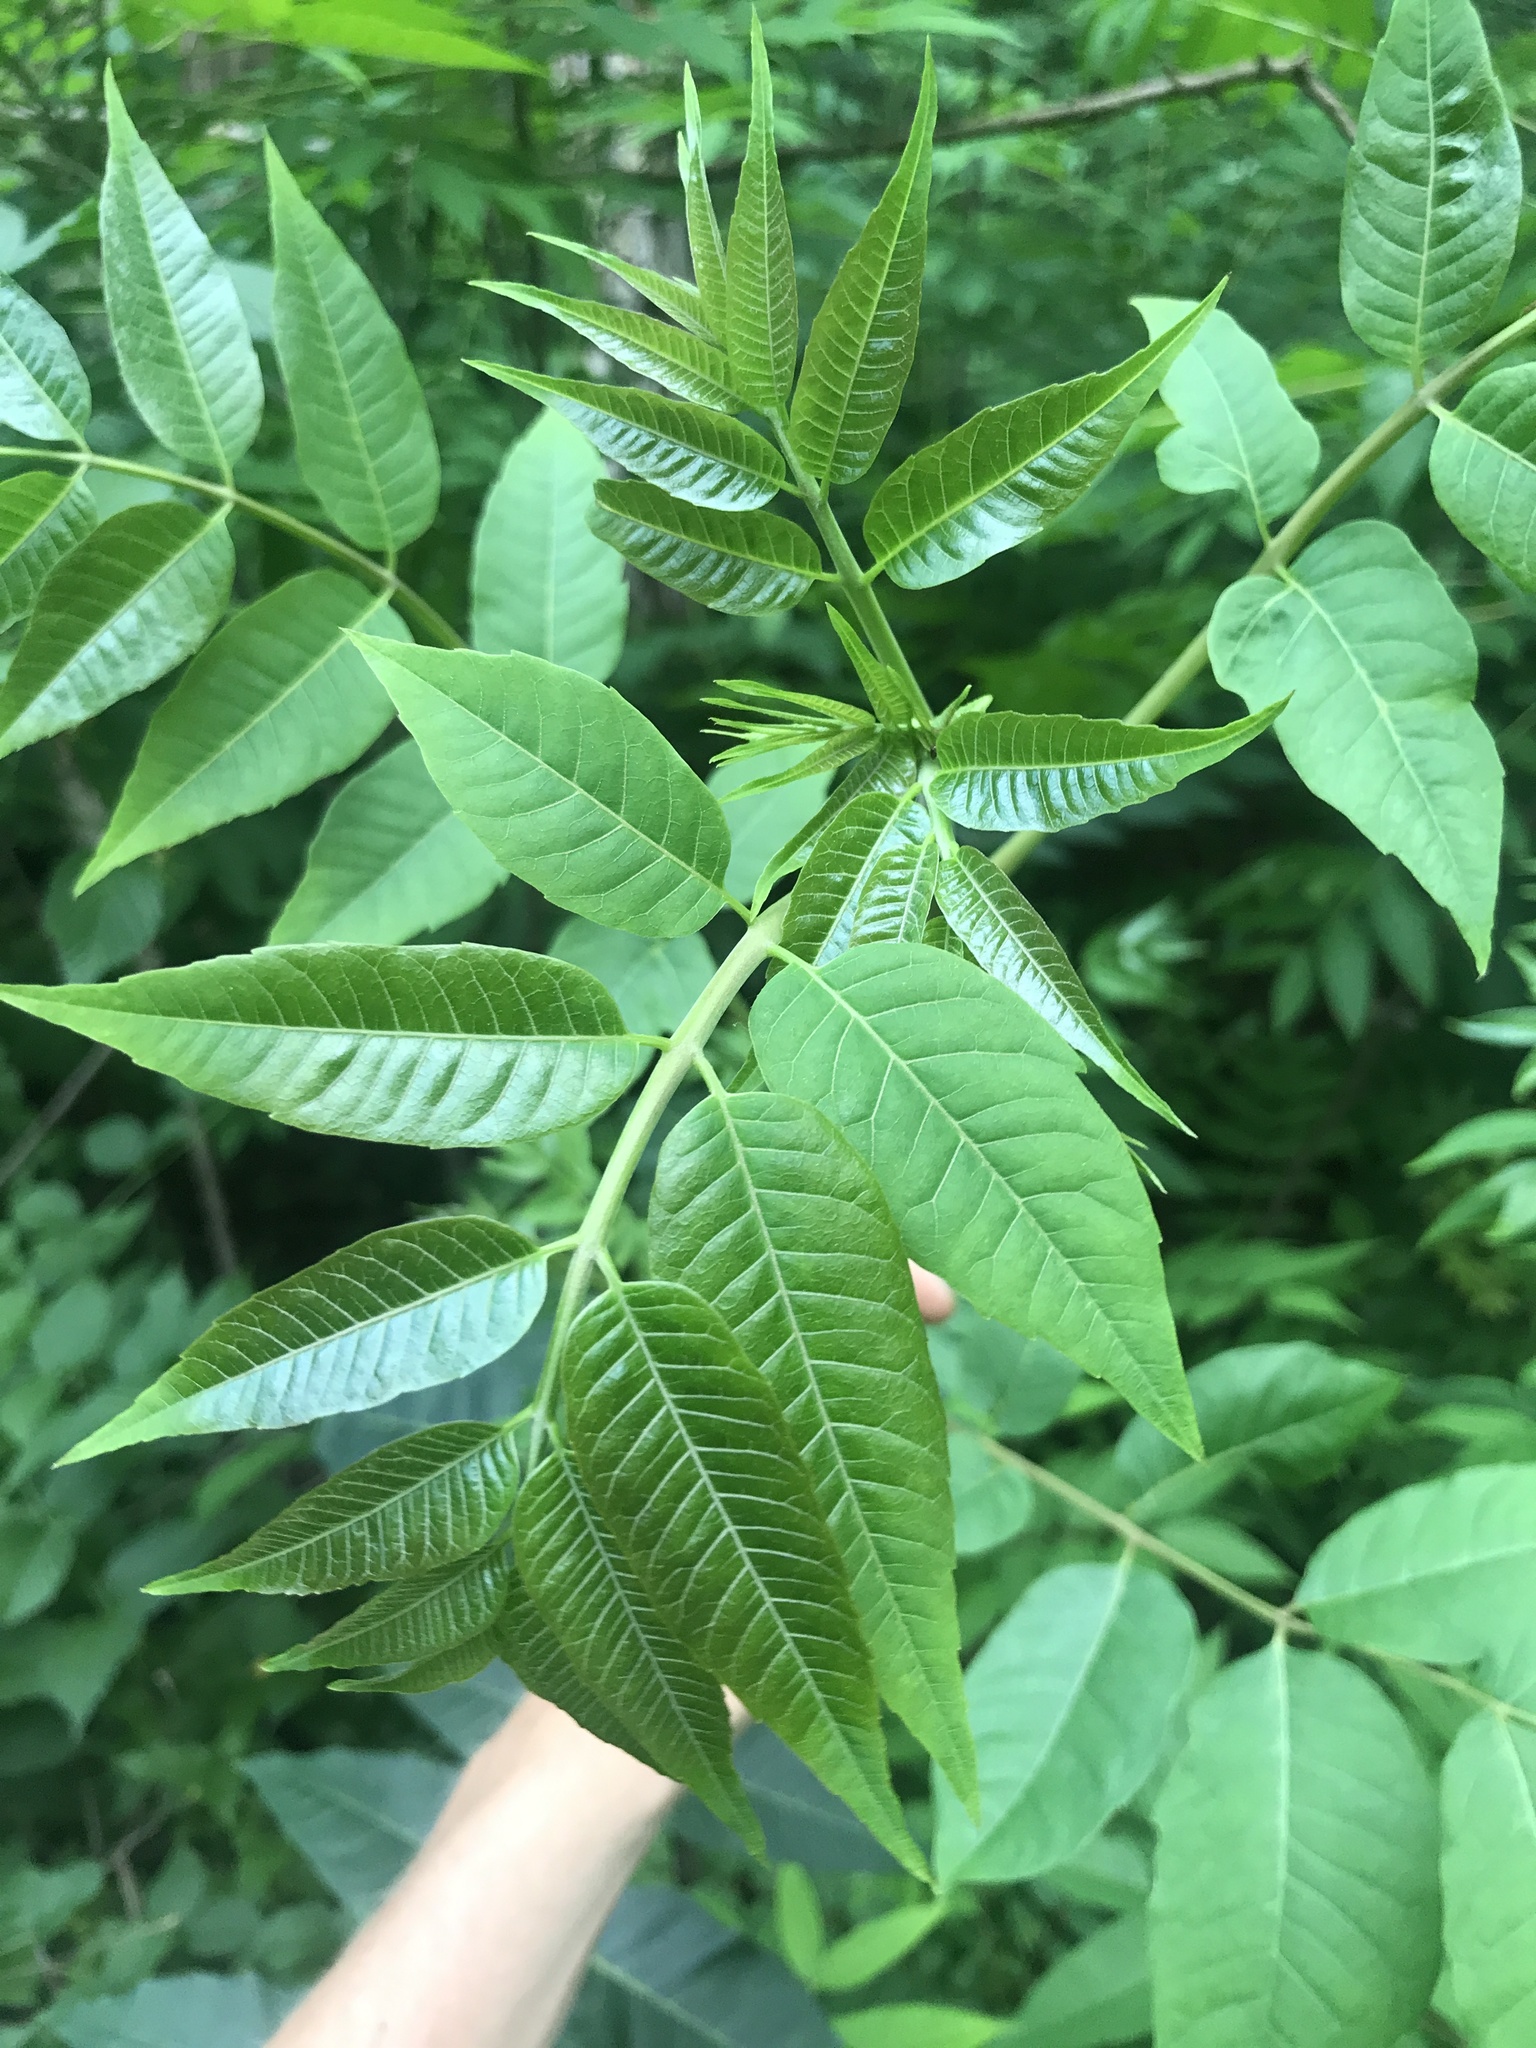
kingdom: Plantae
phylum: Tracheophyta
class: Magnoliopsida
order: Sapindales
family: Meliaceae
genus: Toona
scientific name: Toona sinensis
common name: Red toon
